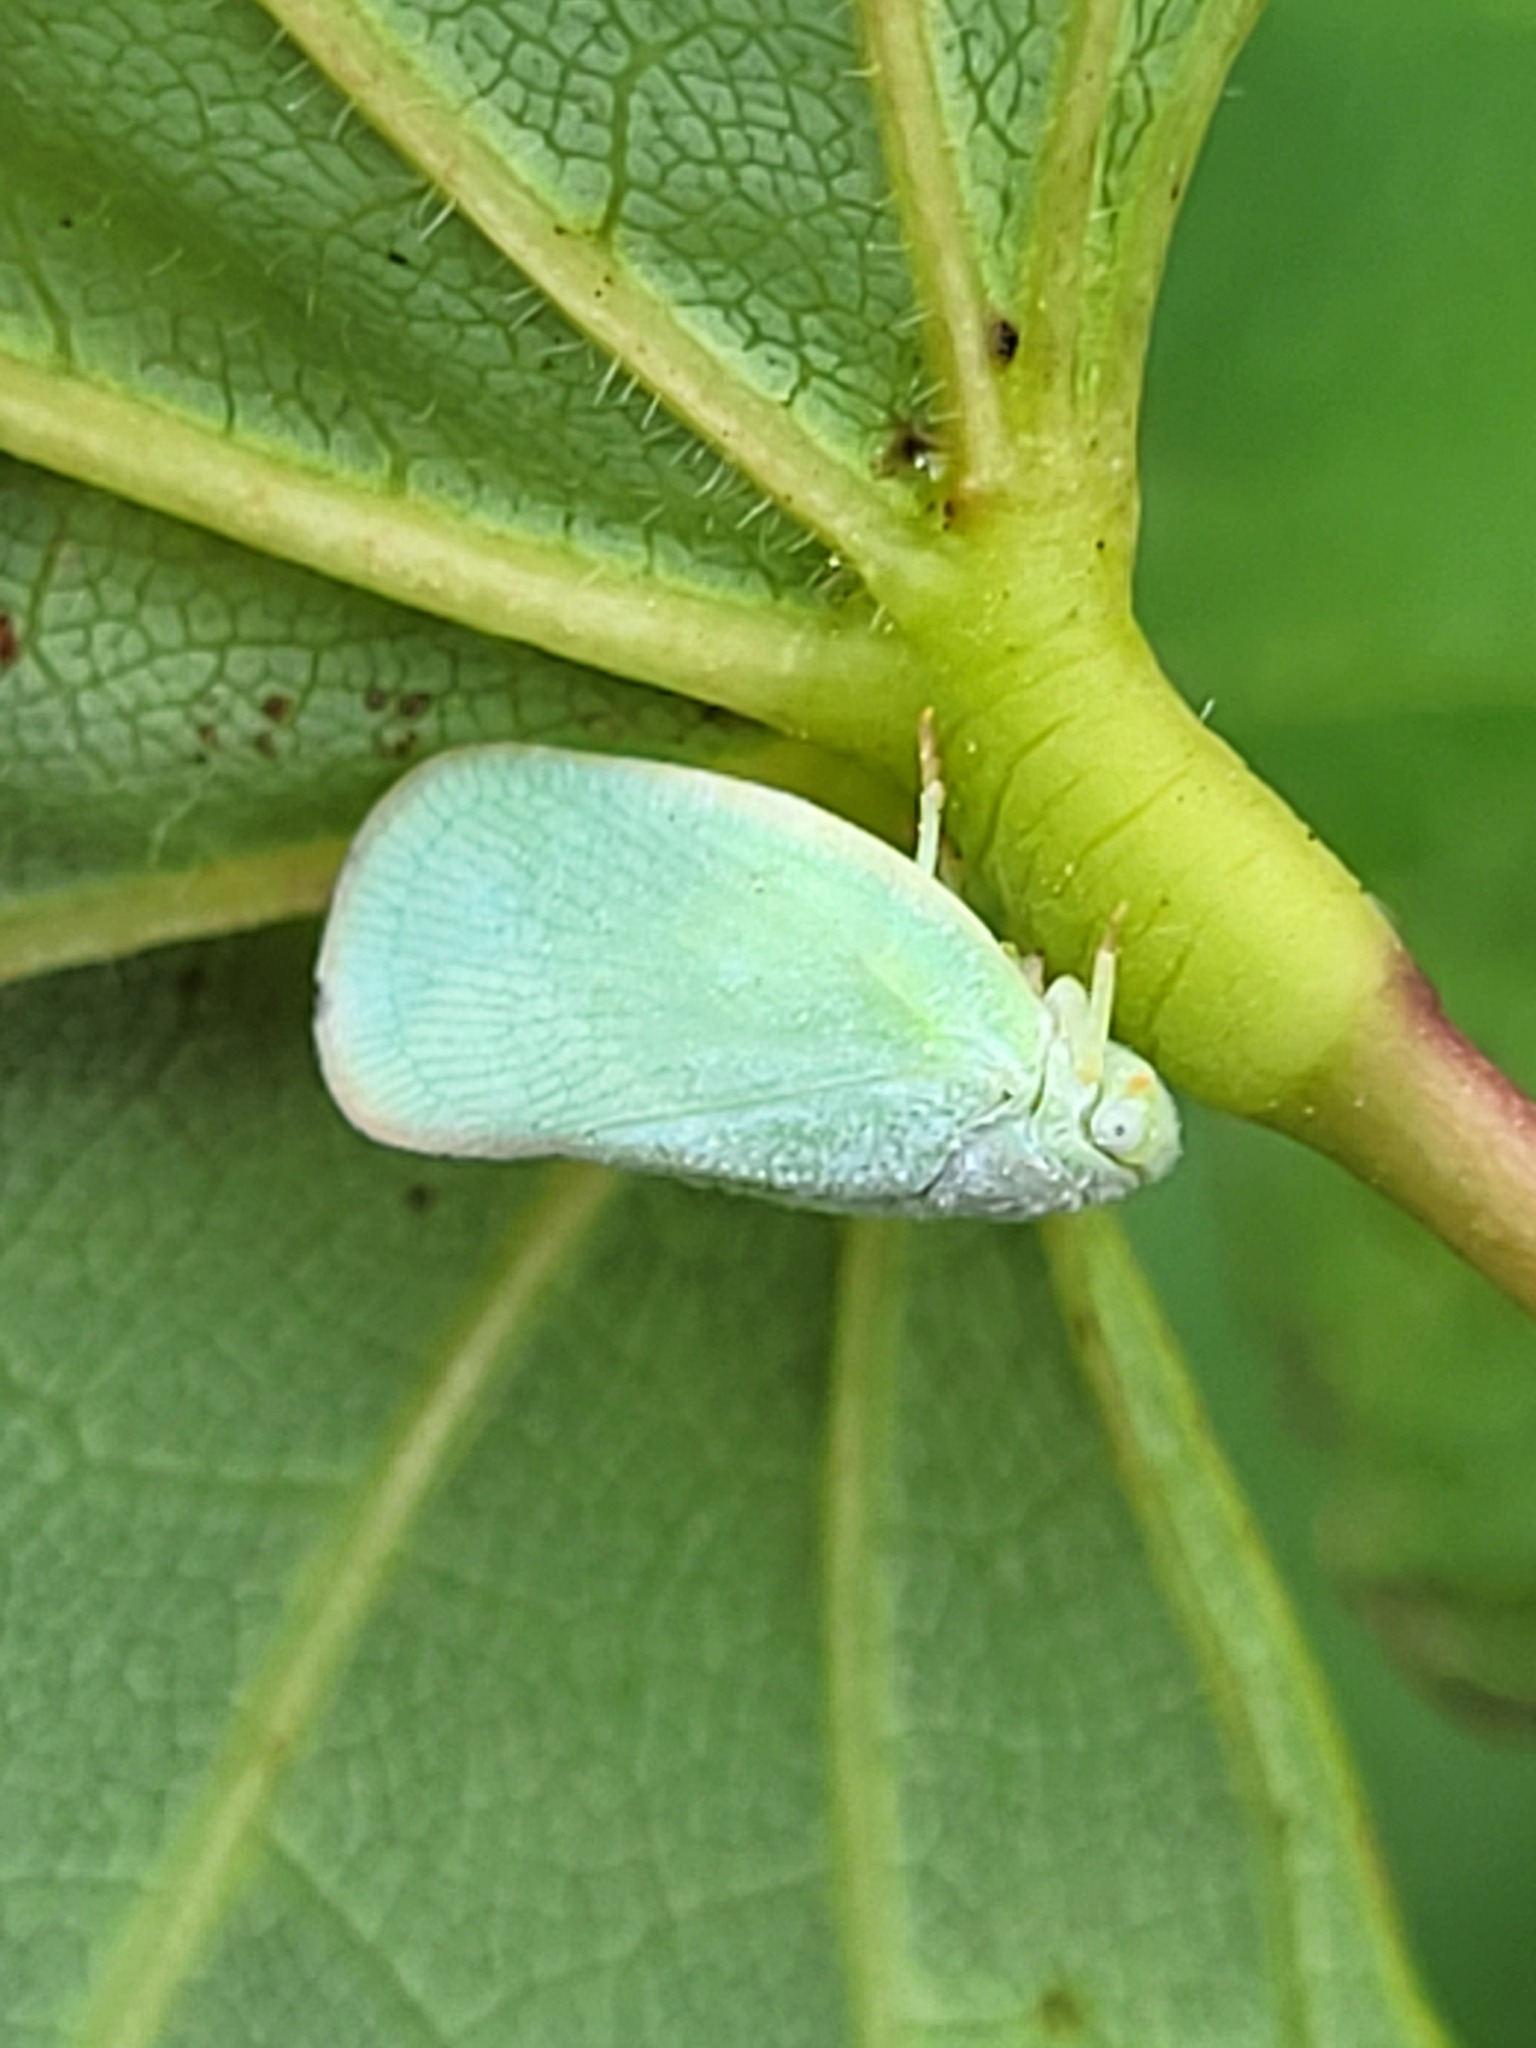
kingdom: Animalia
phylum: Arthropoda
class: Insecta
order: Hemiptera
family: Flatidae
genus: Ormenoides
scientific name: Ormenoides venusta
